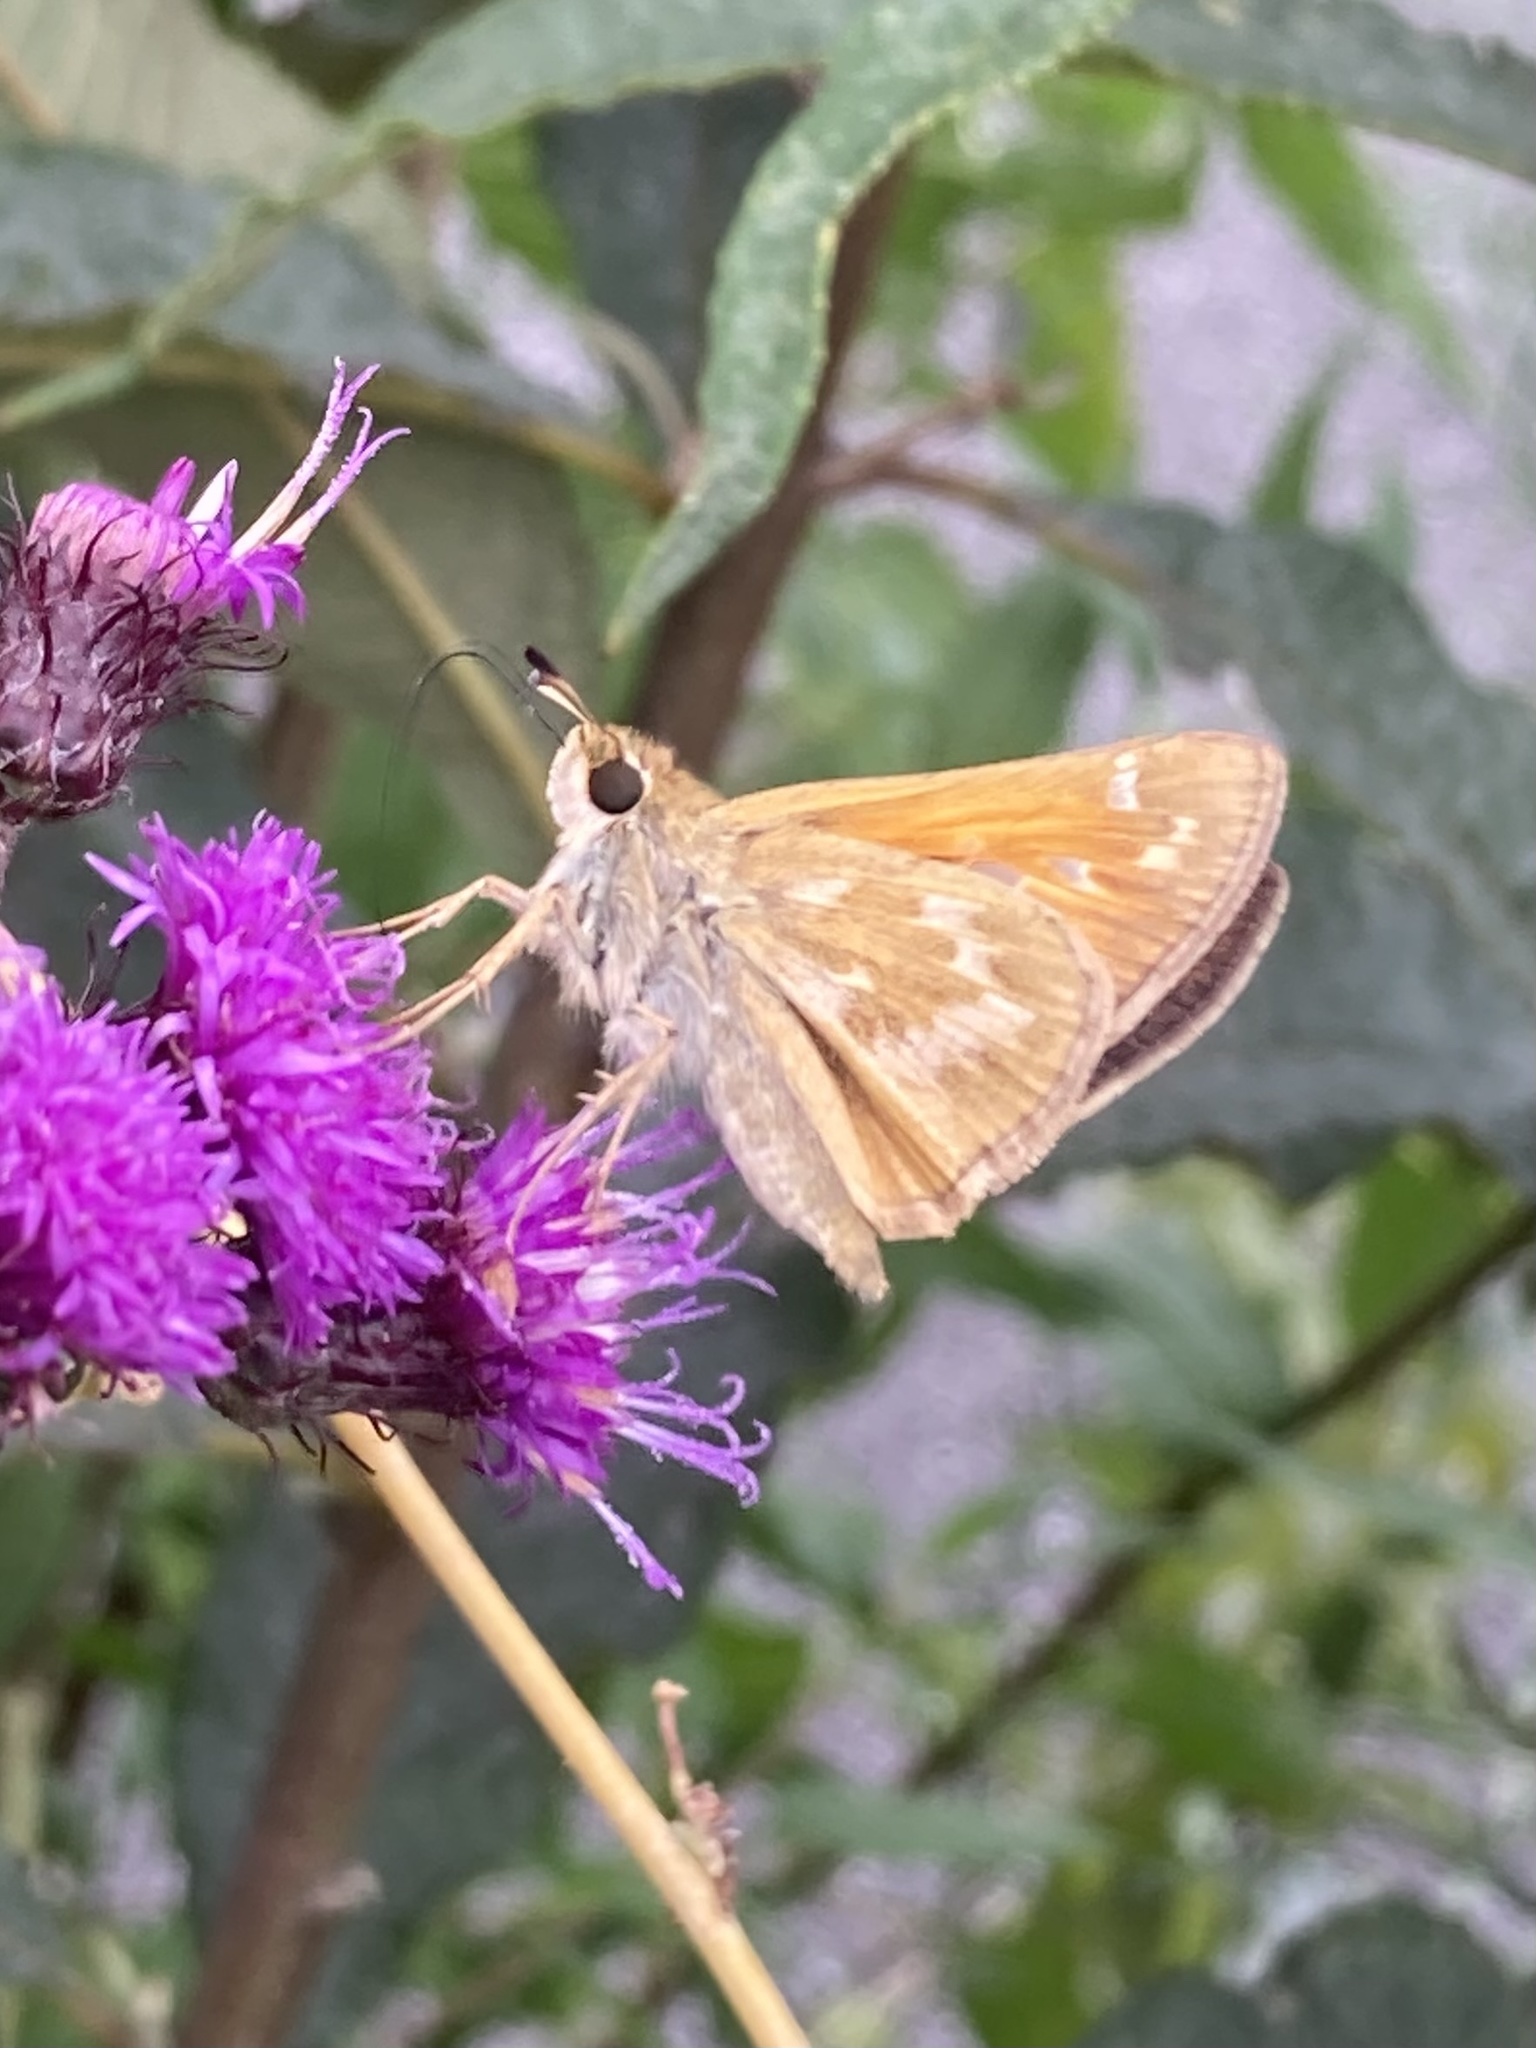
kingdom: Animalia
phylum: Arthropoda
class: Insecta
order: Lepidoptera
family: Hesperiidae
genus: Atalopedes
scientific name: Atalopedes
